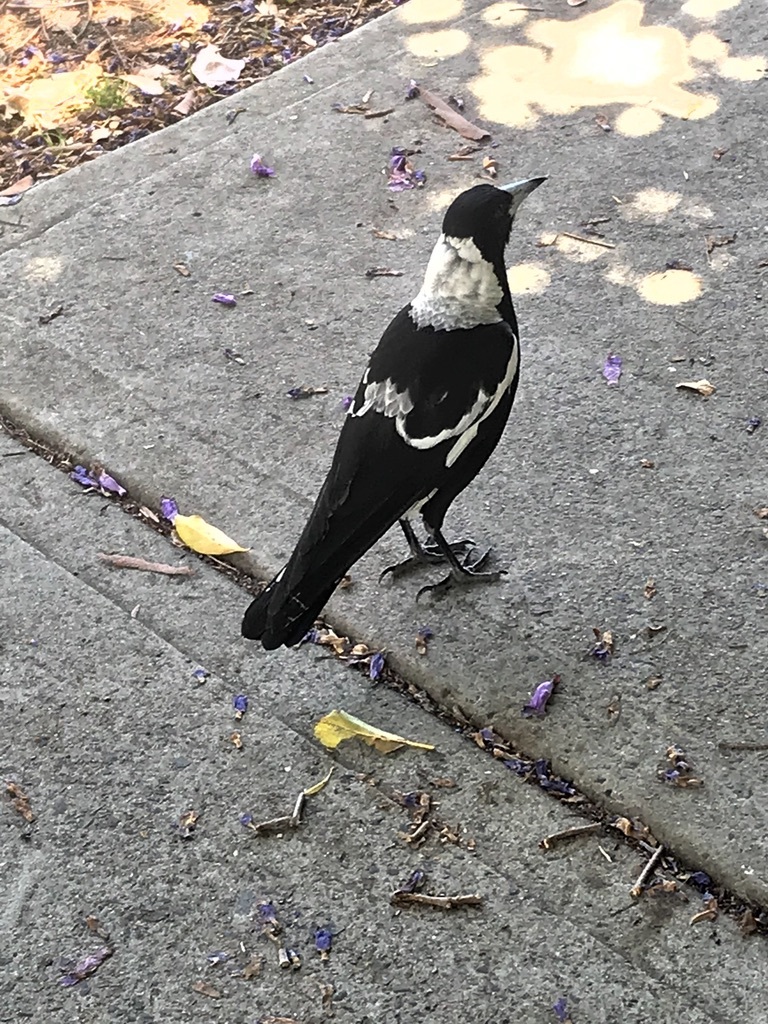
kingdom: Animalia
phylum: Chordata
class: Aves
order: Passeriformes
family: Cracticidae
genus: Gymnorhina
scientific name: Gymnorhina tibicen
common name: Australian magpie
